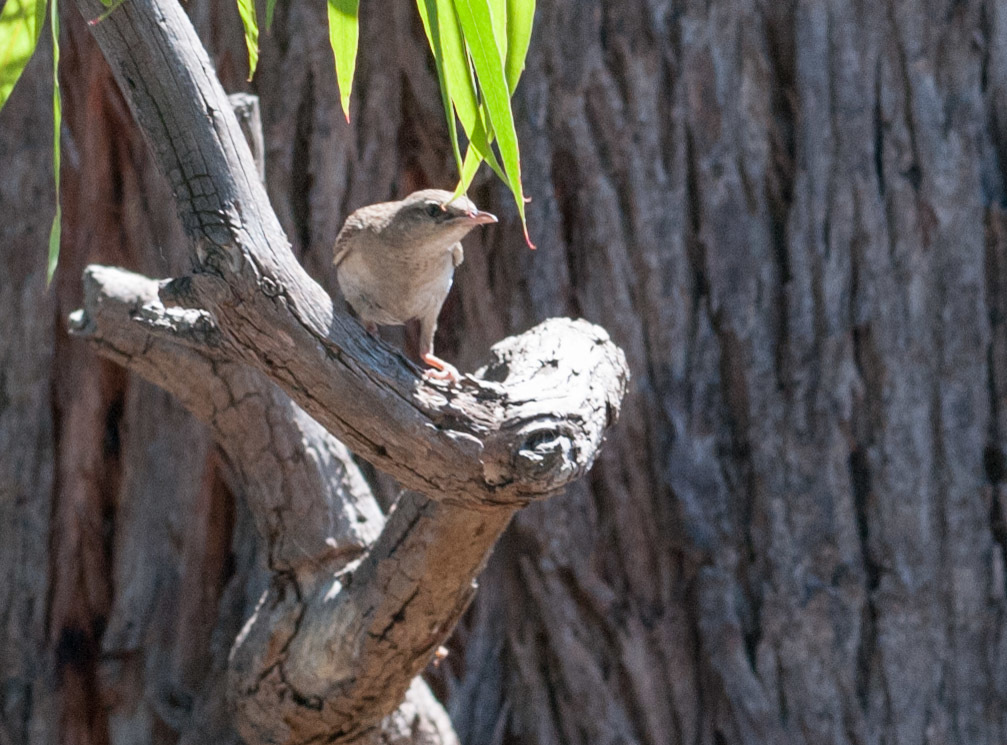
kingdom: Animalia
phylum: Chordata
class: Aves
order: Passeriformes
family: Locustellidae
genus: Megalurus
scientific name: Megalurus mathewsi
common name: Rufous songlark
